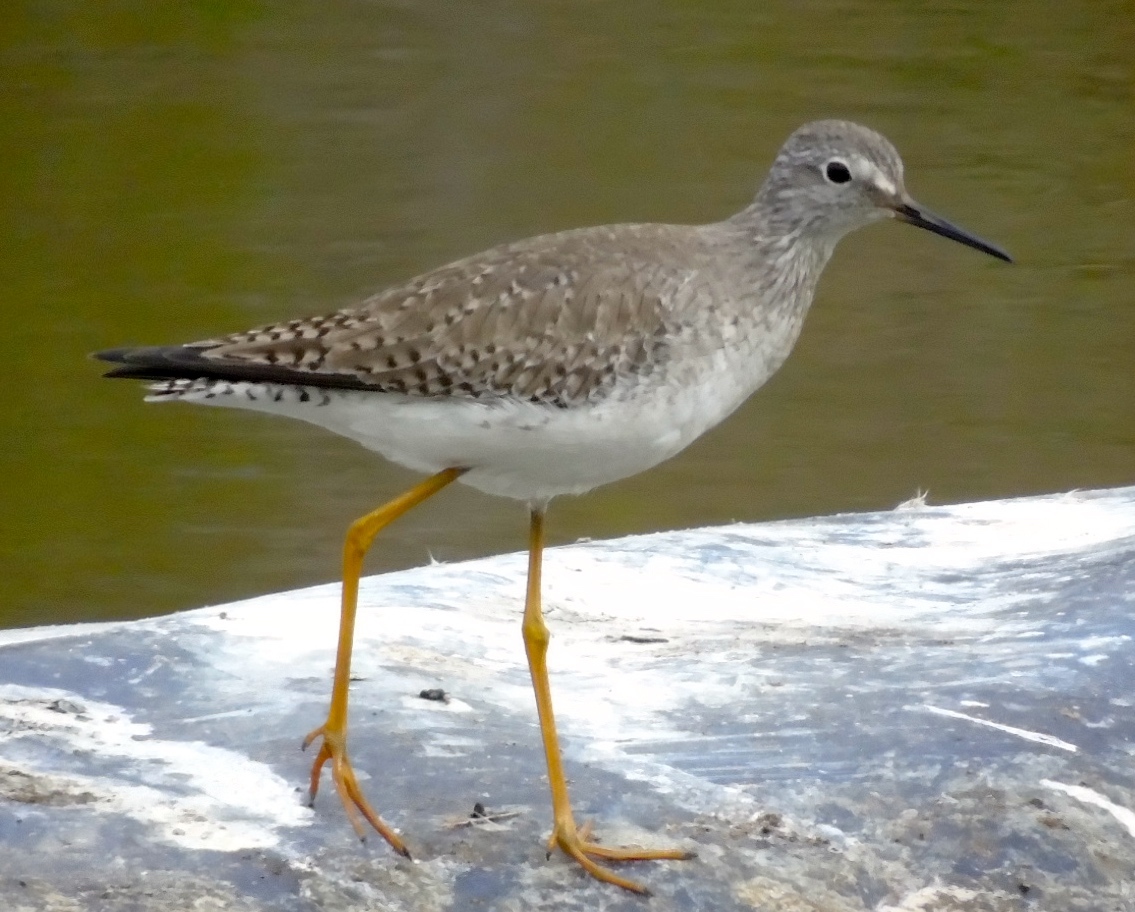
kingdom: Animalia
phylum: Chordata
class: Aves
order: Charadriiformes
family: Scolopacidae
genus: Tringa
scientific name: Tringa flavipes
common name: Lesser yellowlegs
